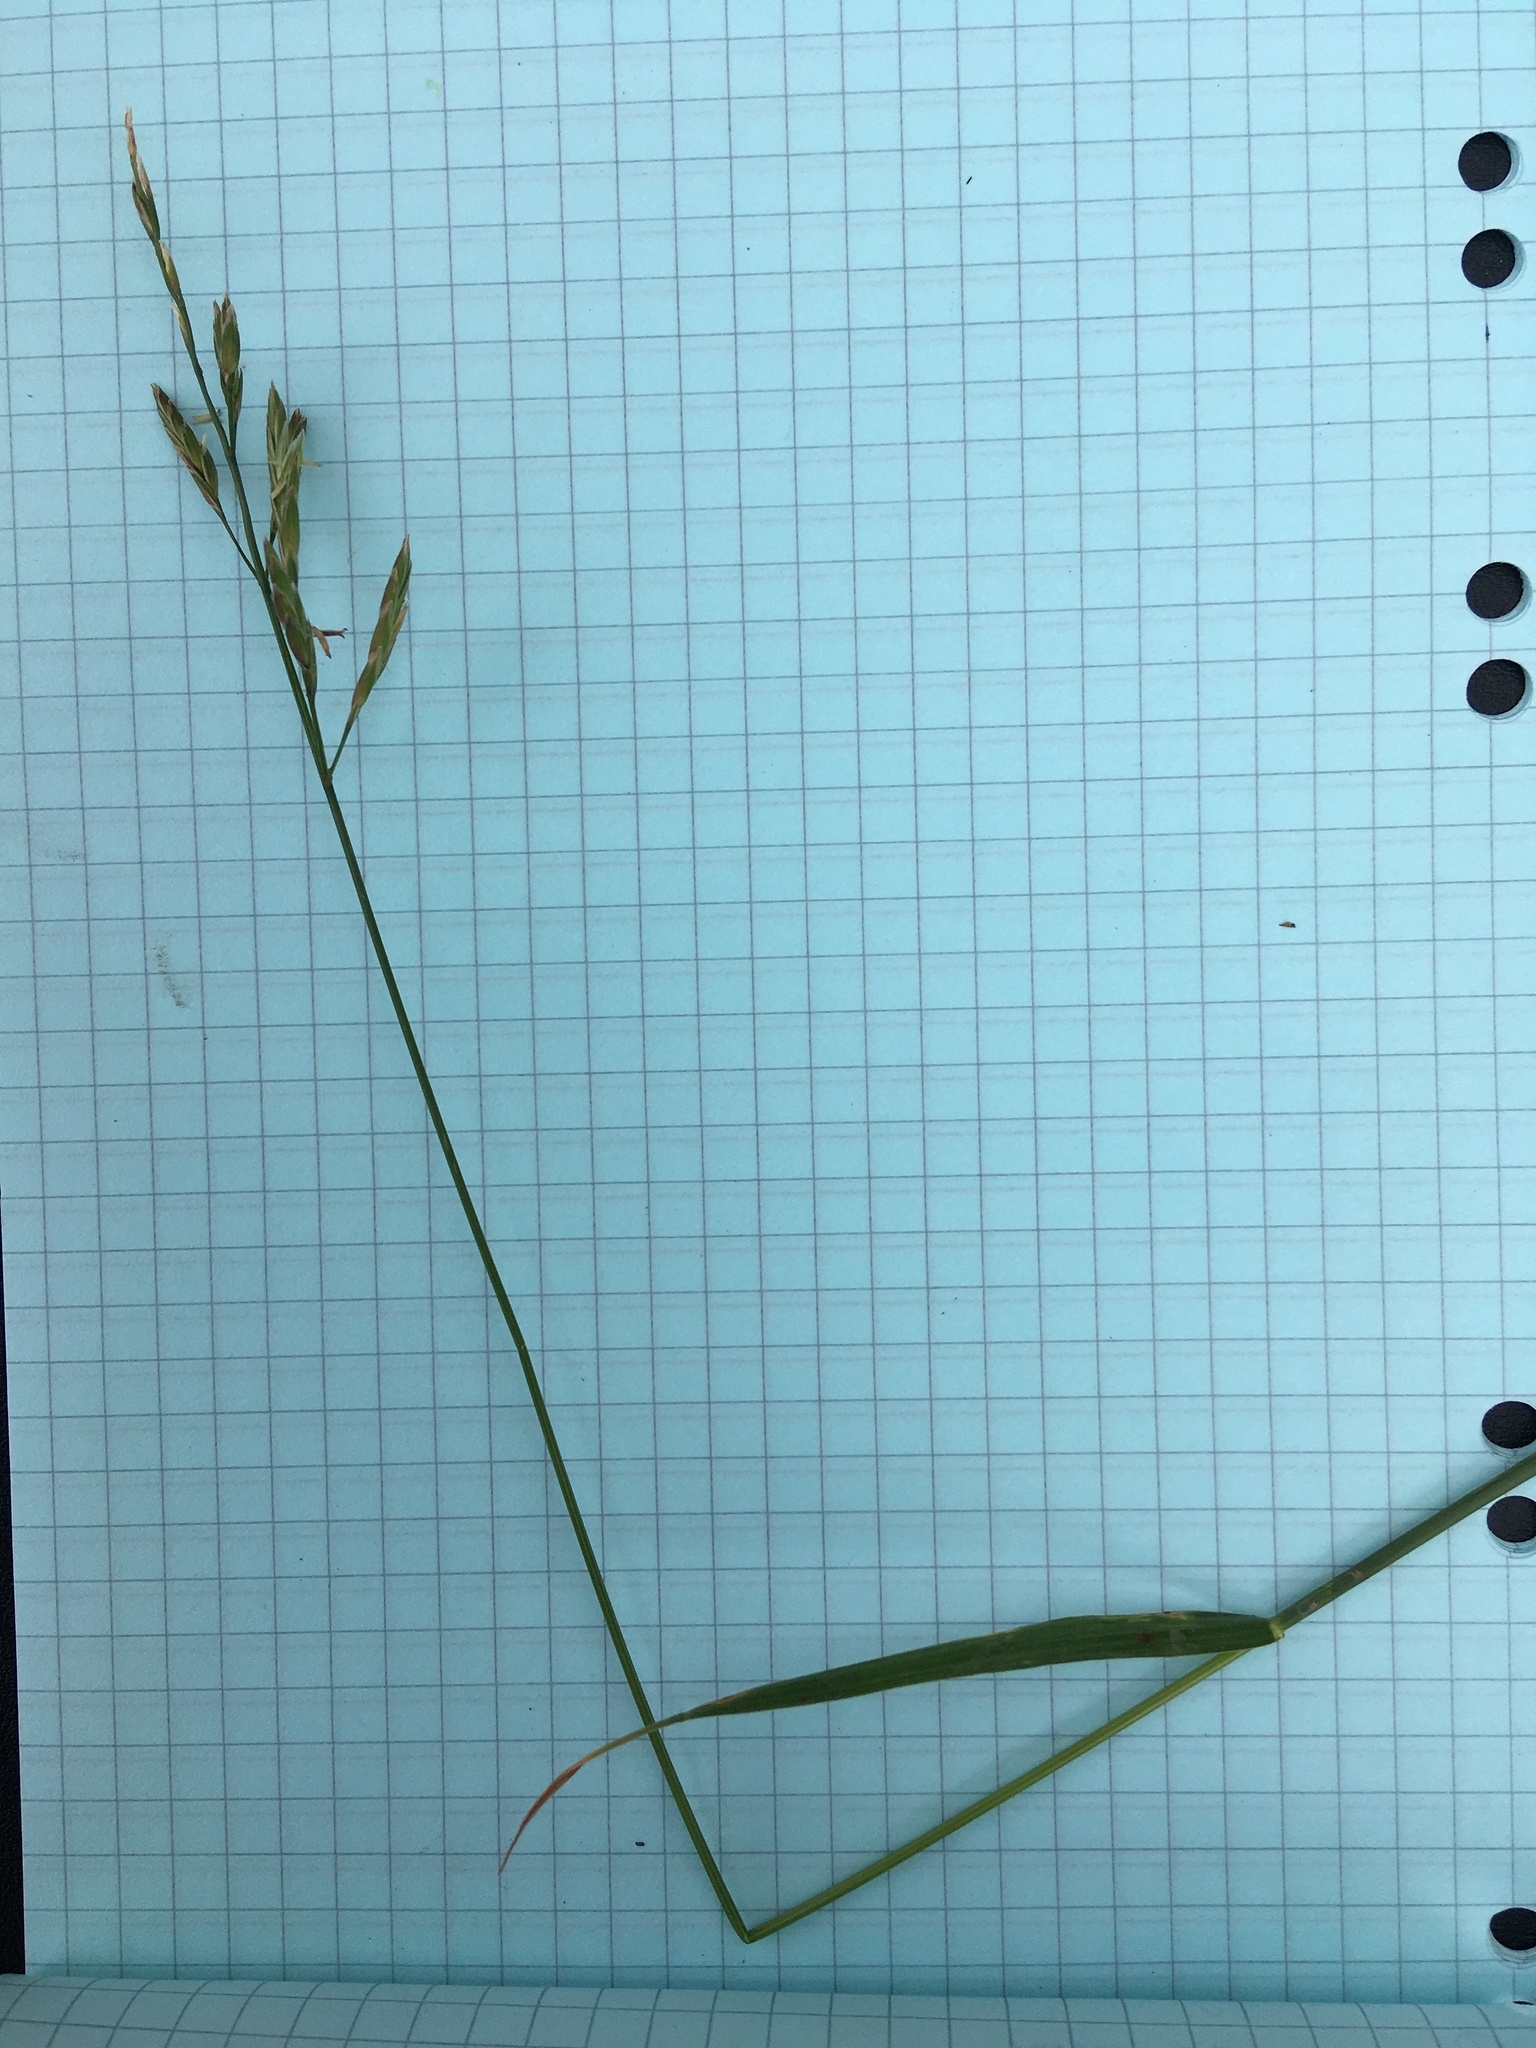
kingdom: Plantae
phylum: Tracheophyta
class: Liliopsida
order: Poales
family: Poaceae
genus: Lolium
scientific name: Lolium pratense
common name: Dover grass
